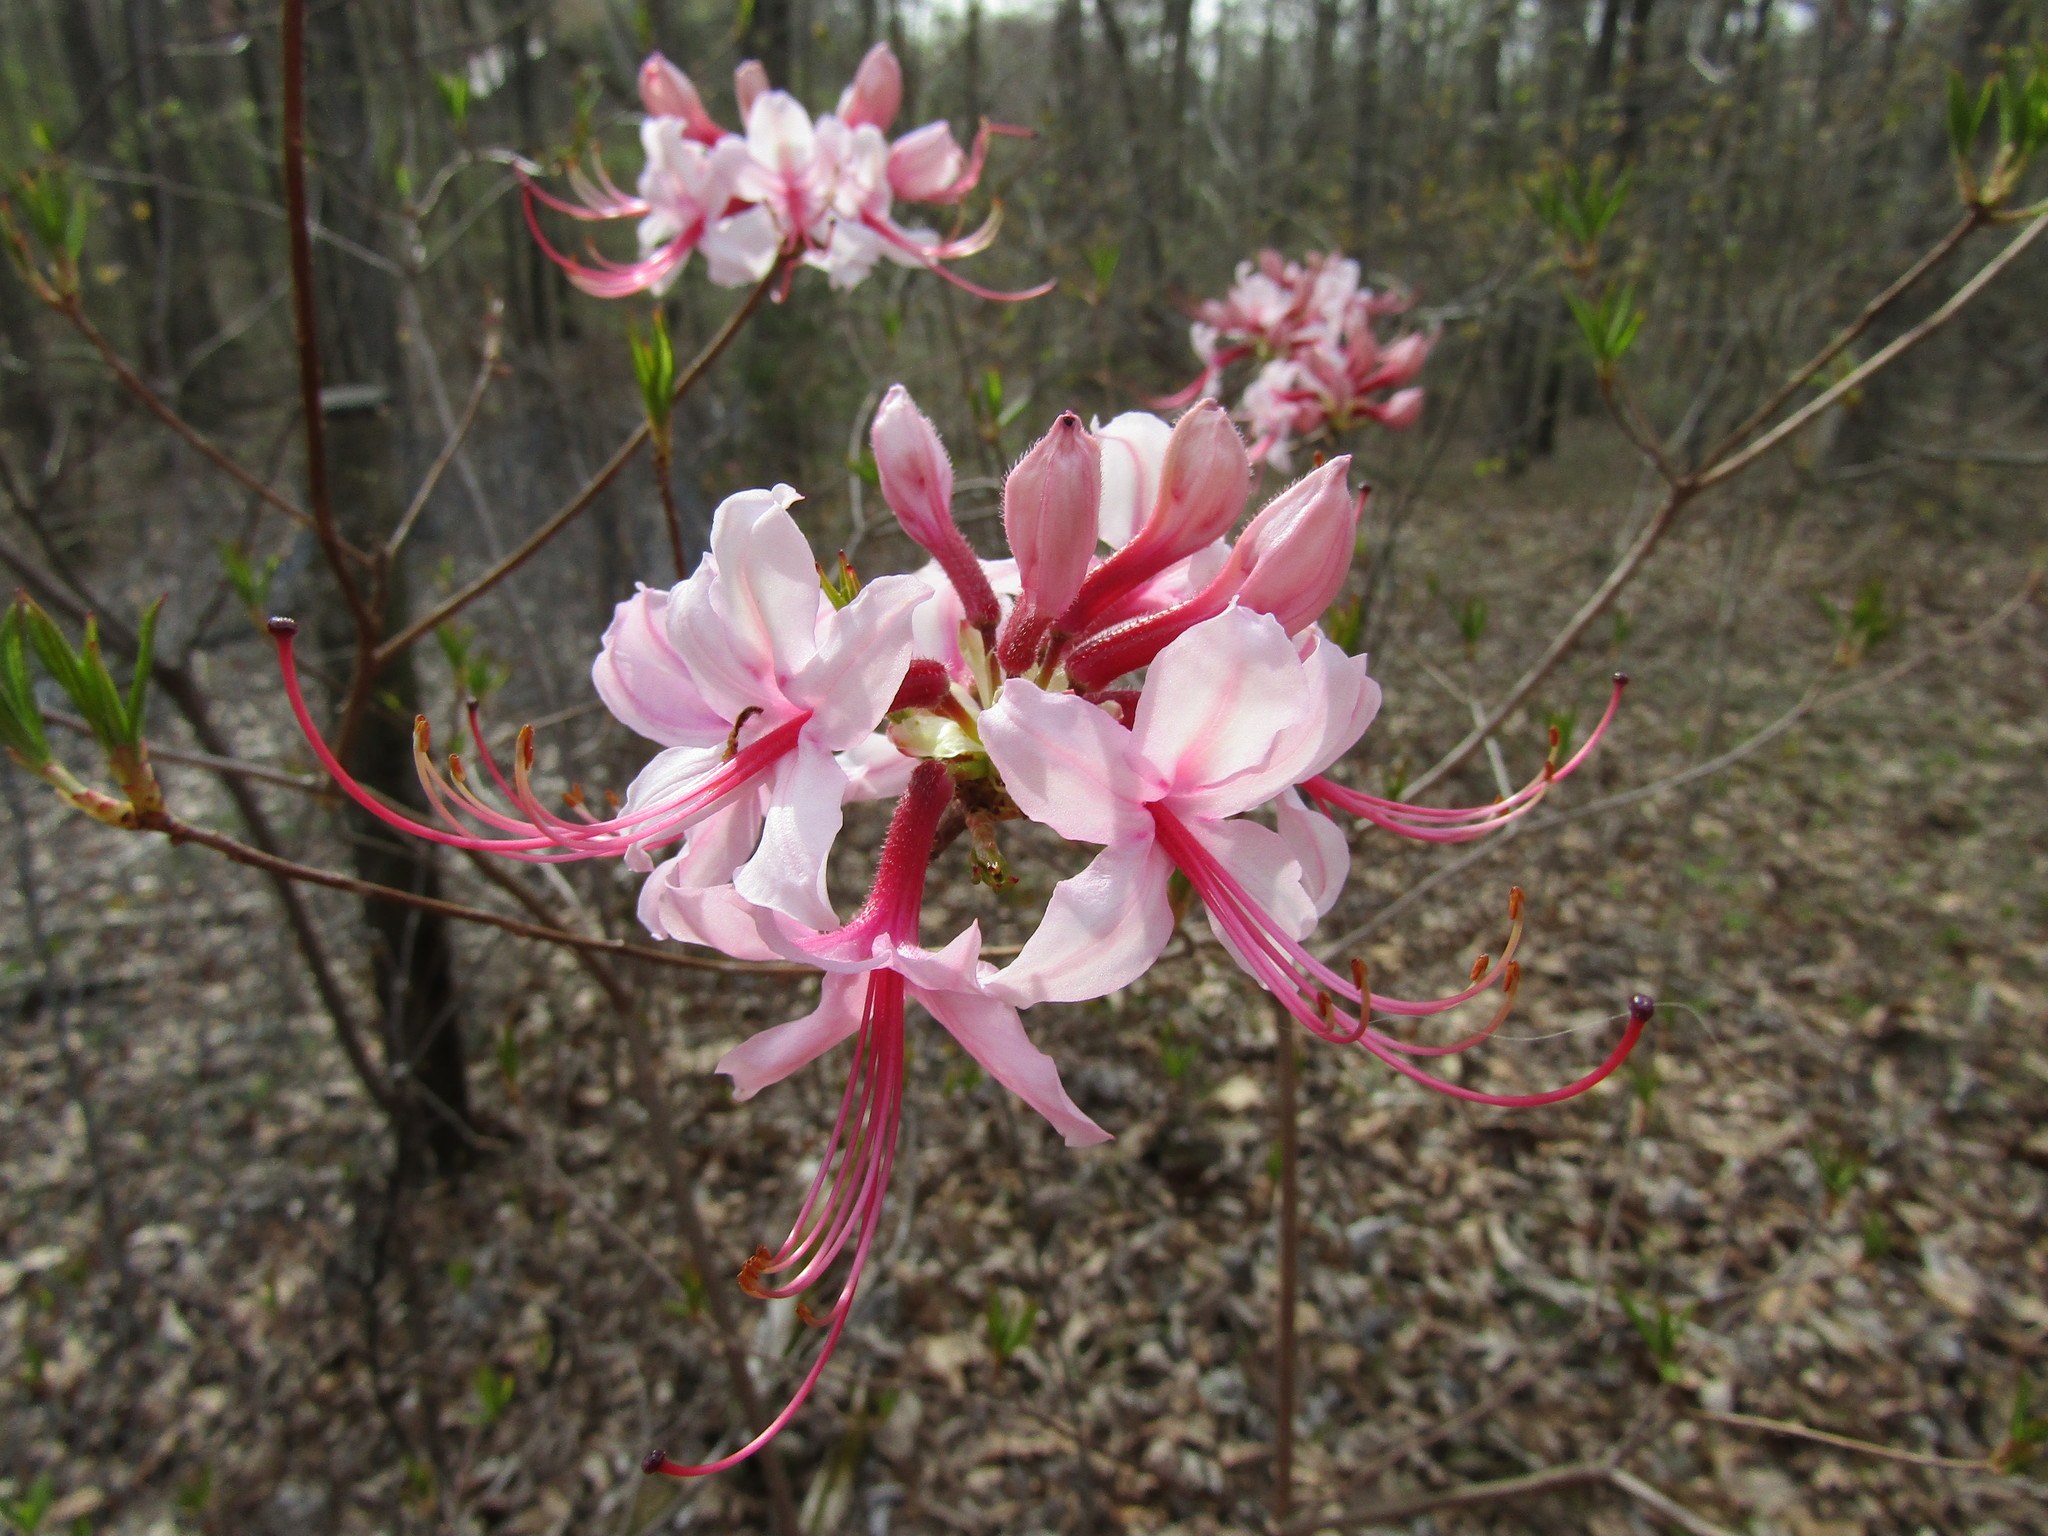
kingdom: Plantae
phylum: Tracheophyta
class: Magnoliopsida
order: Ericales
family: Ericaceae
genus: Rhododendron
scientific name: Rhododendron periclymenoides
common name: Election-pink
